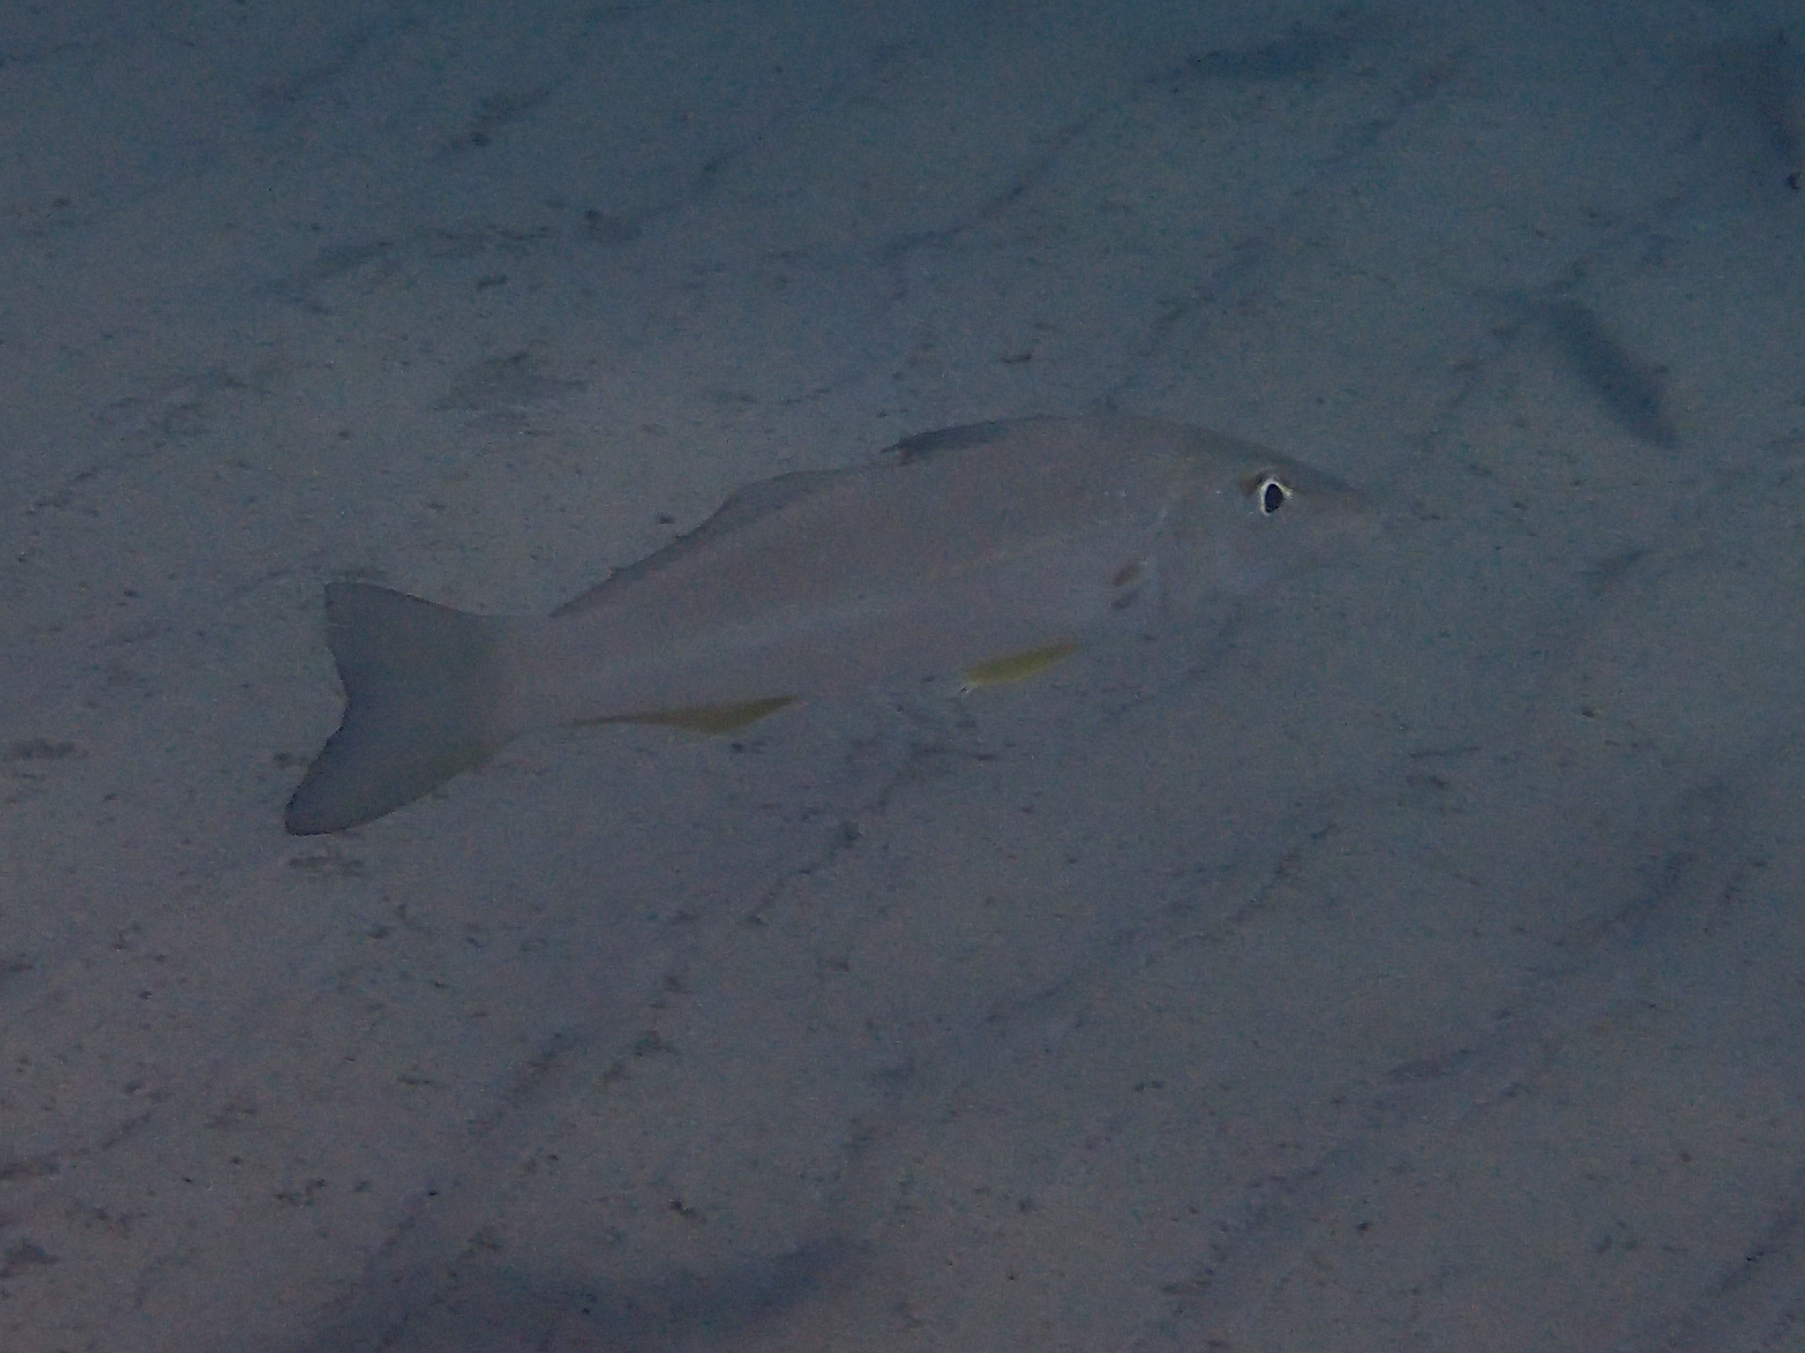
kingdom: Animalia
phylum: Chordata
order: Perciformes
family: Sillaginidae
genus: Sillago
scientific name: Sillago ciliata
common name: Sand sillago
